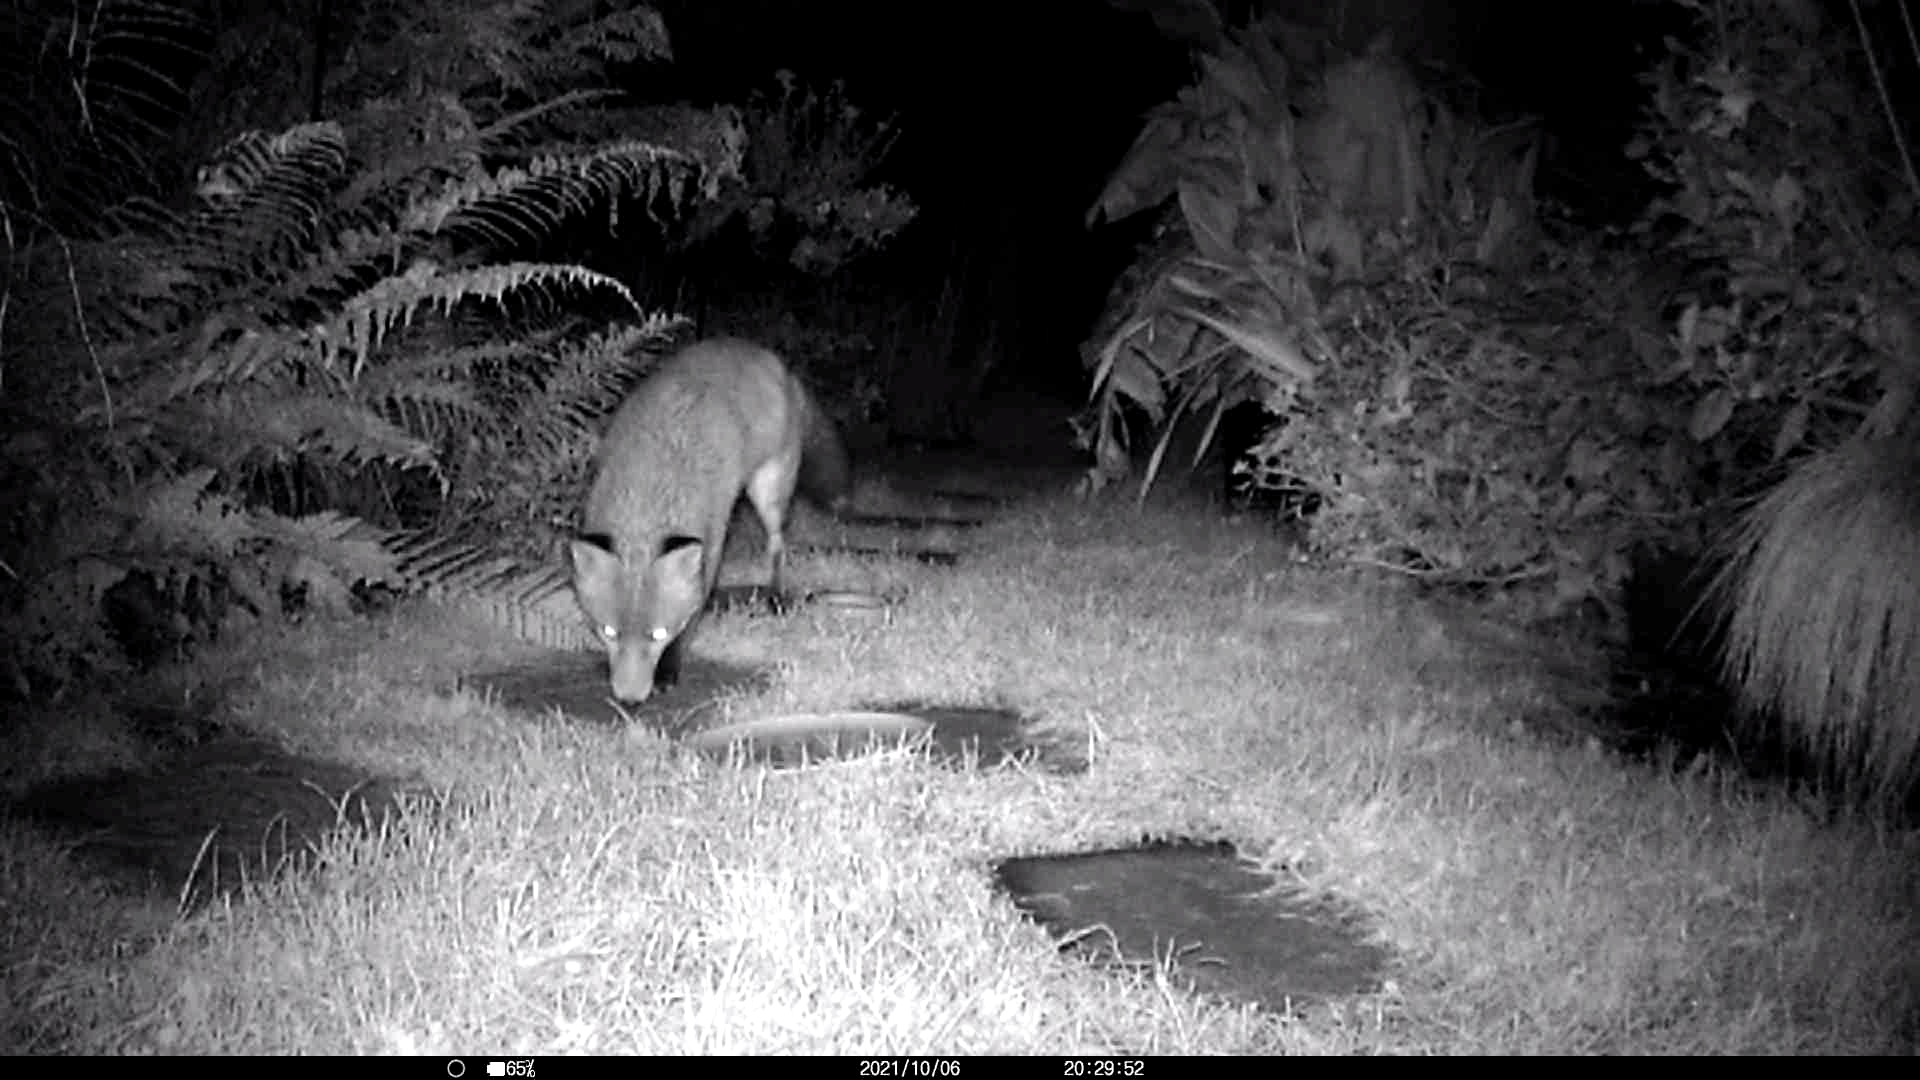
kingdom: Animalia
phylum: Chordata
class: Mammalia
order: Carnivora
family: Canidae
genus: Vulpes
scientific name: Vulpes vulpes
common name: Red fox
